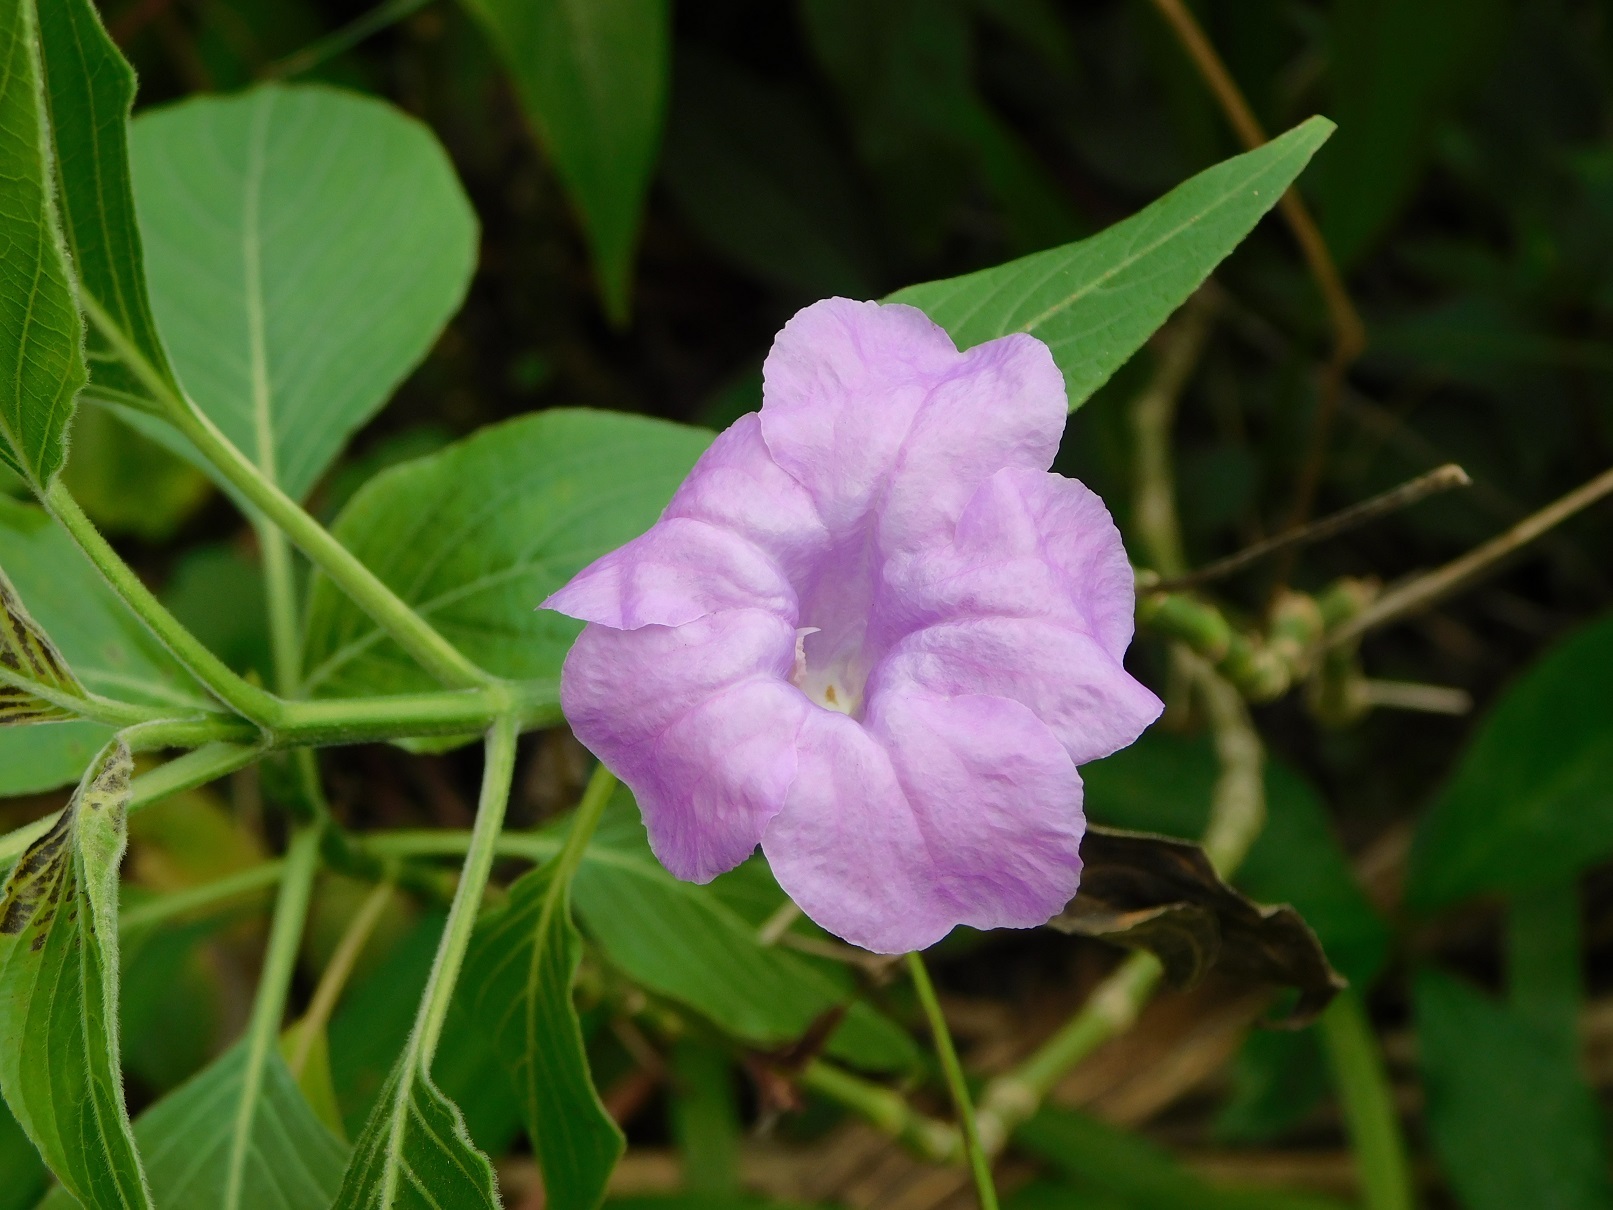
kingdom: Plantae
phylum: Tracheophyta
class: Magnoliopsida
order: Lamiales
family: Acanthaceae
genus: Ruellia
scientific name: Ruellia breedlovei
